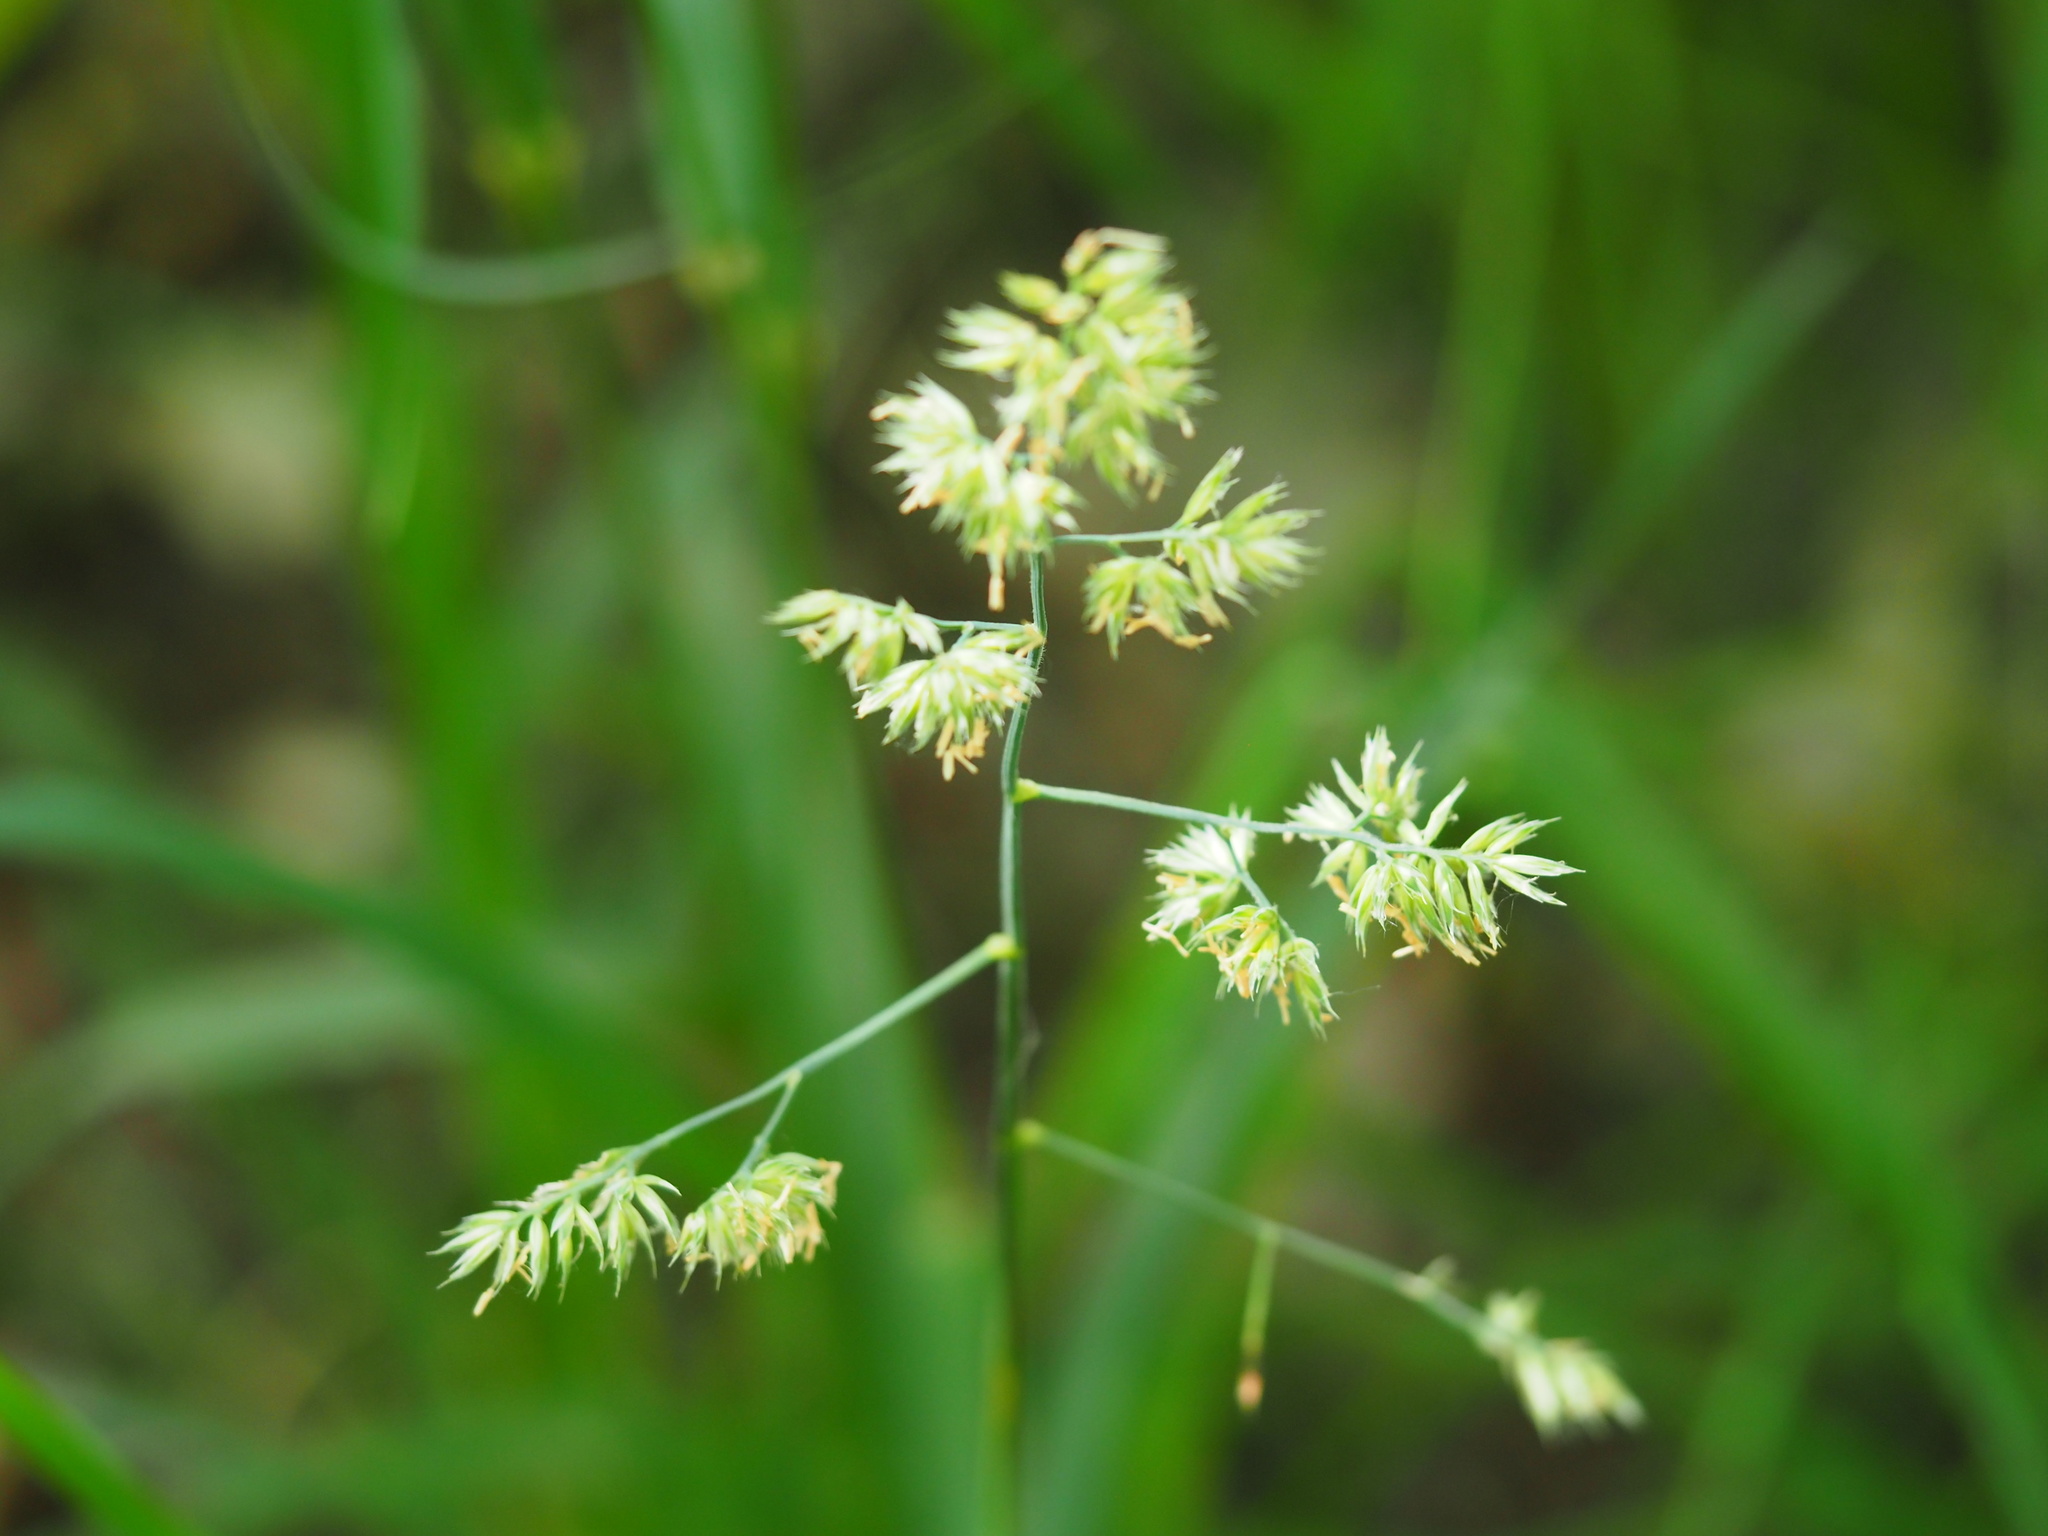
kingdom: Plantae
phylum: Tracheophyta
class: Liliopsida
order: Poales
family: Poaceae
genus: Dactylis
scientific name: Dactylis glomerata
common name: Orchardgrass
